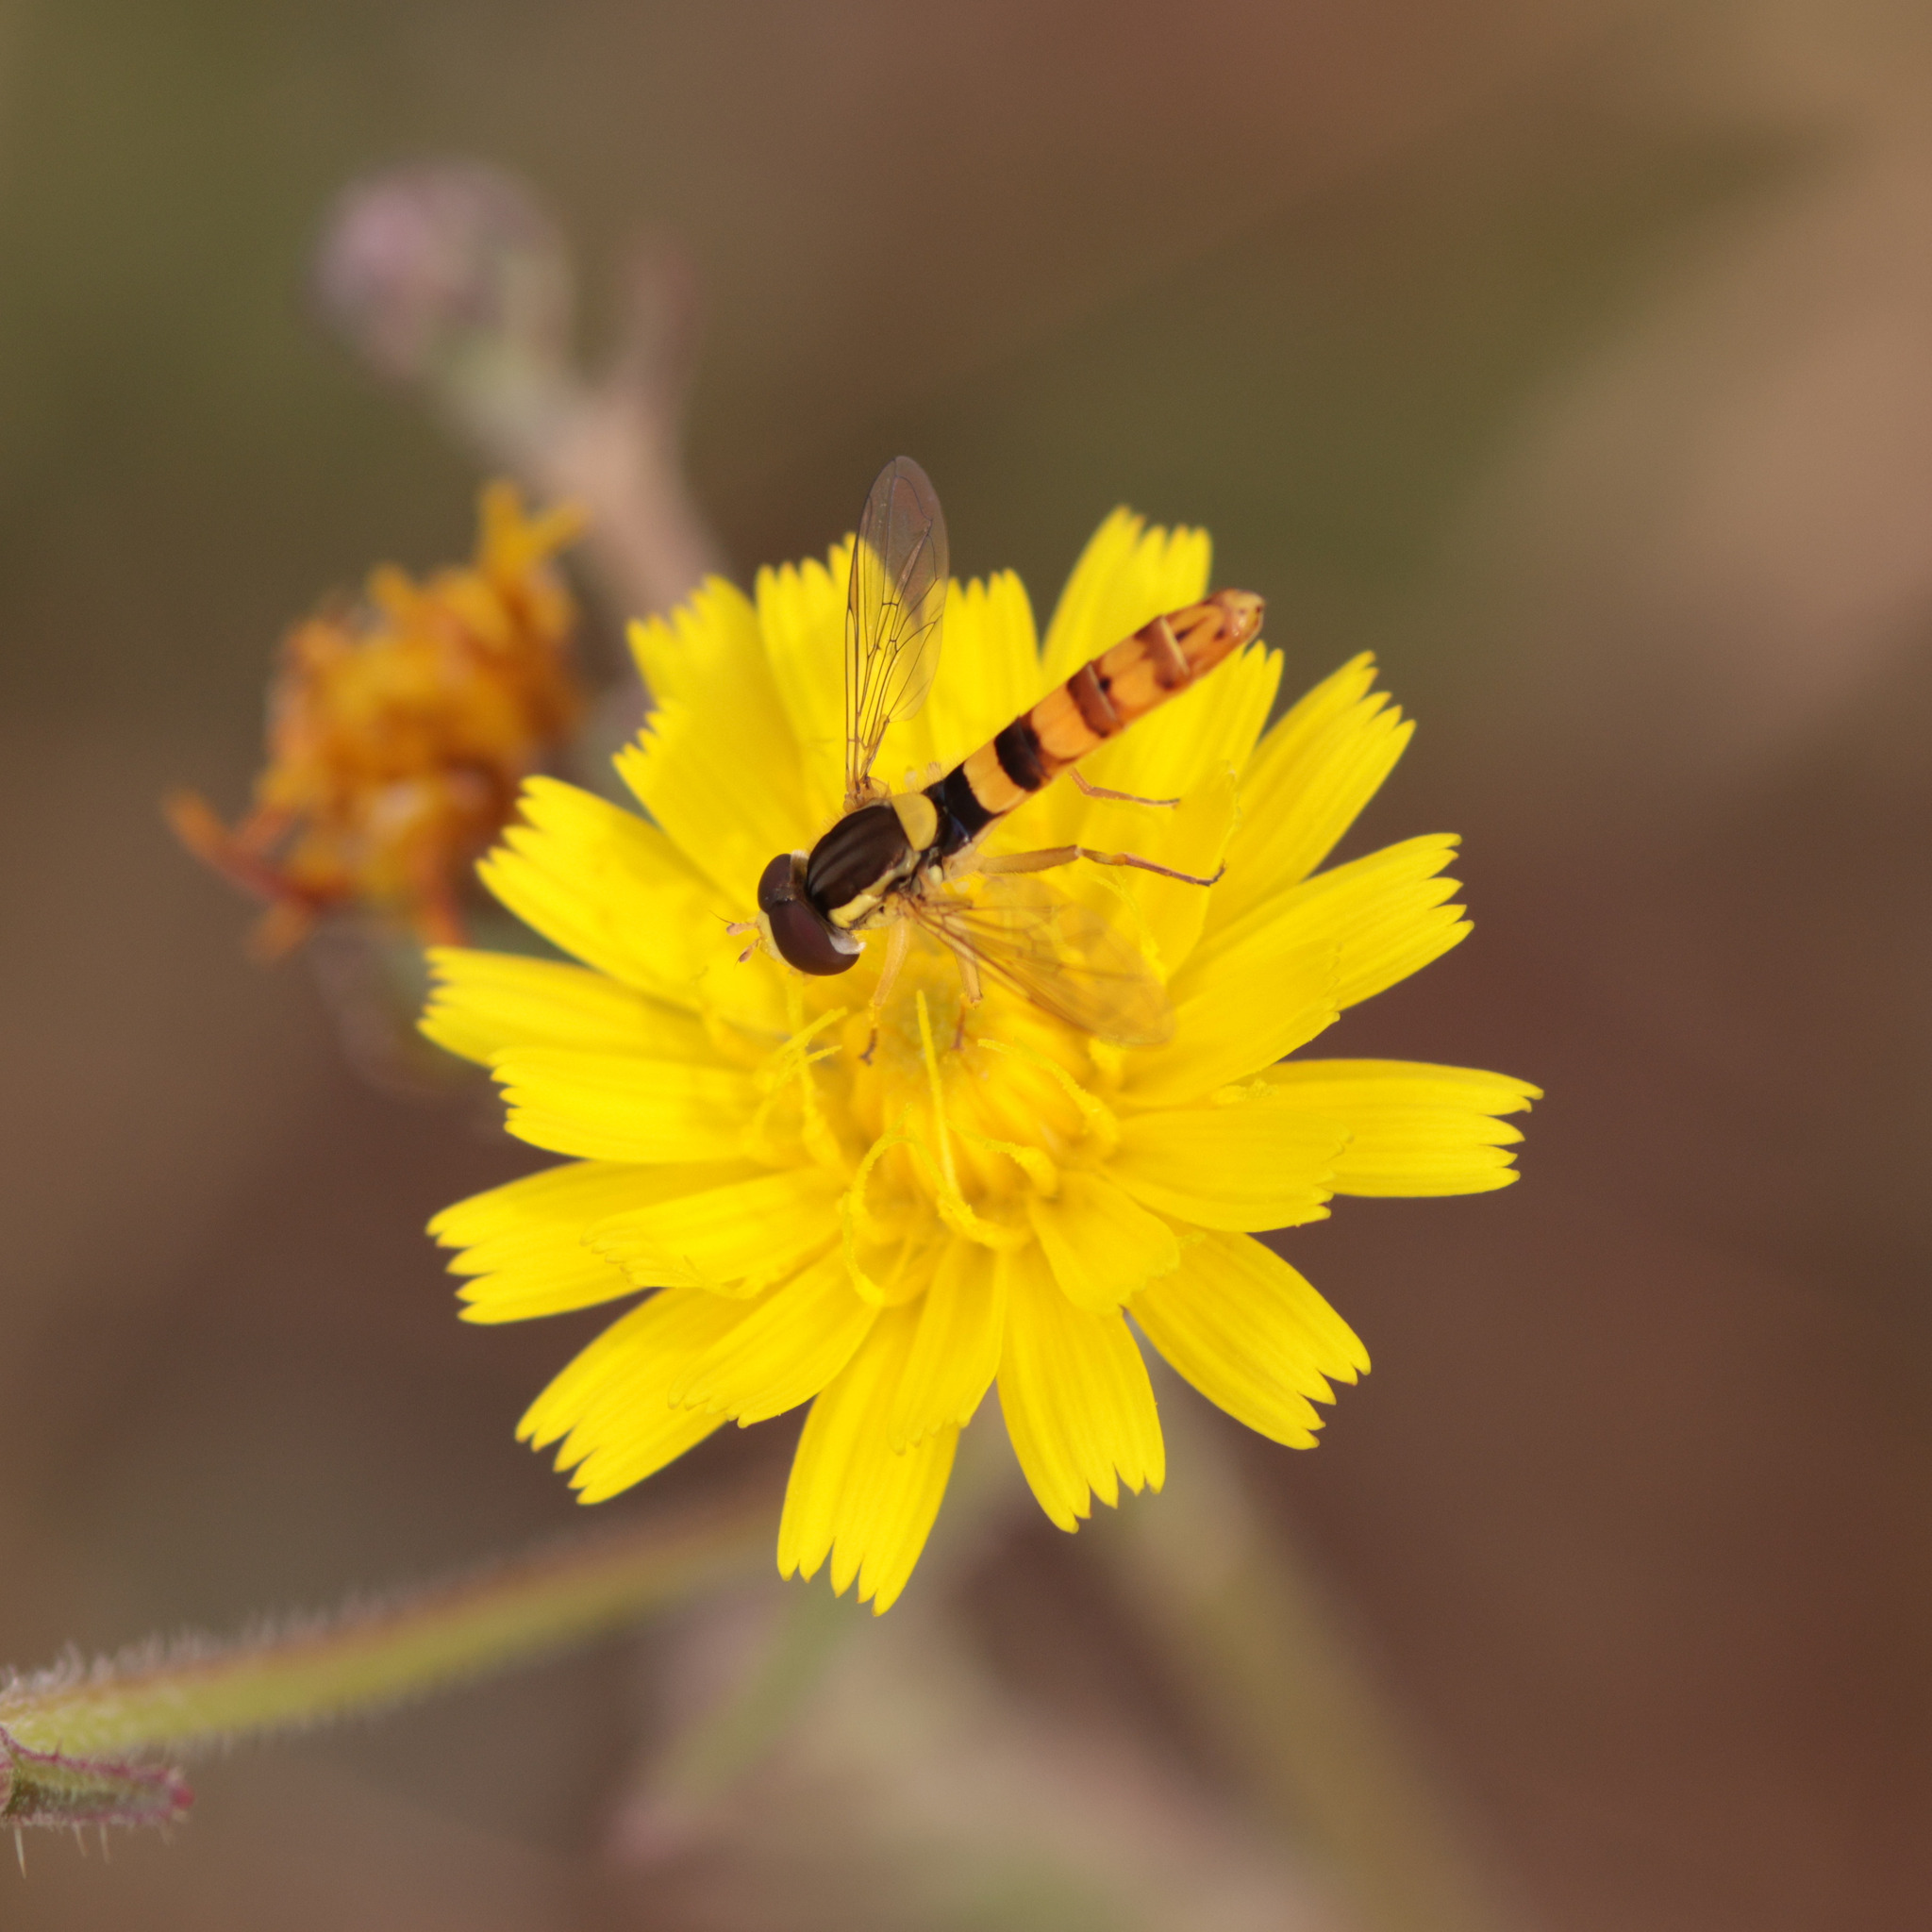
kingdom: Animalia
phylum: Arthropoda
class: Insecta
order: Diptera
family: Syrphidae
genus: Sphaerophoria
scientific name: Sphaerophoria scripta
